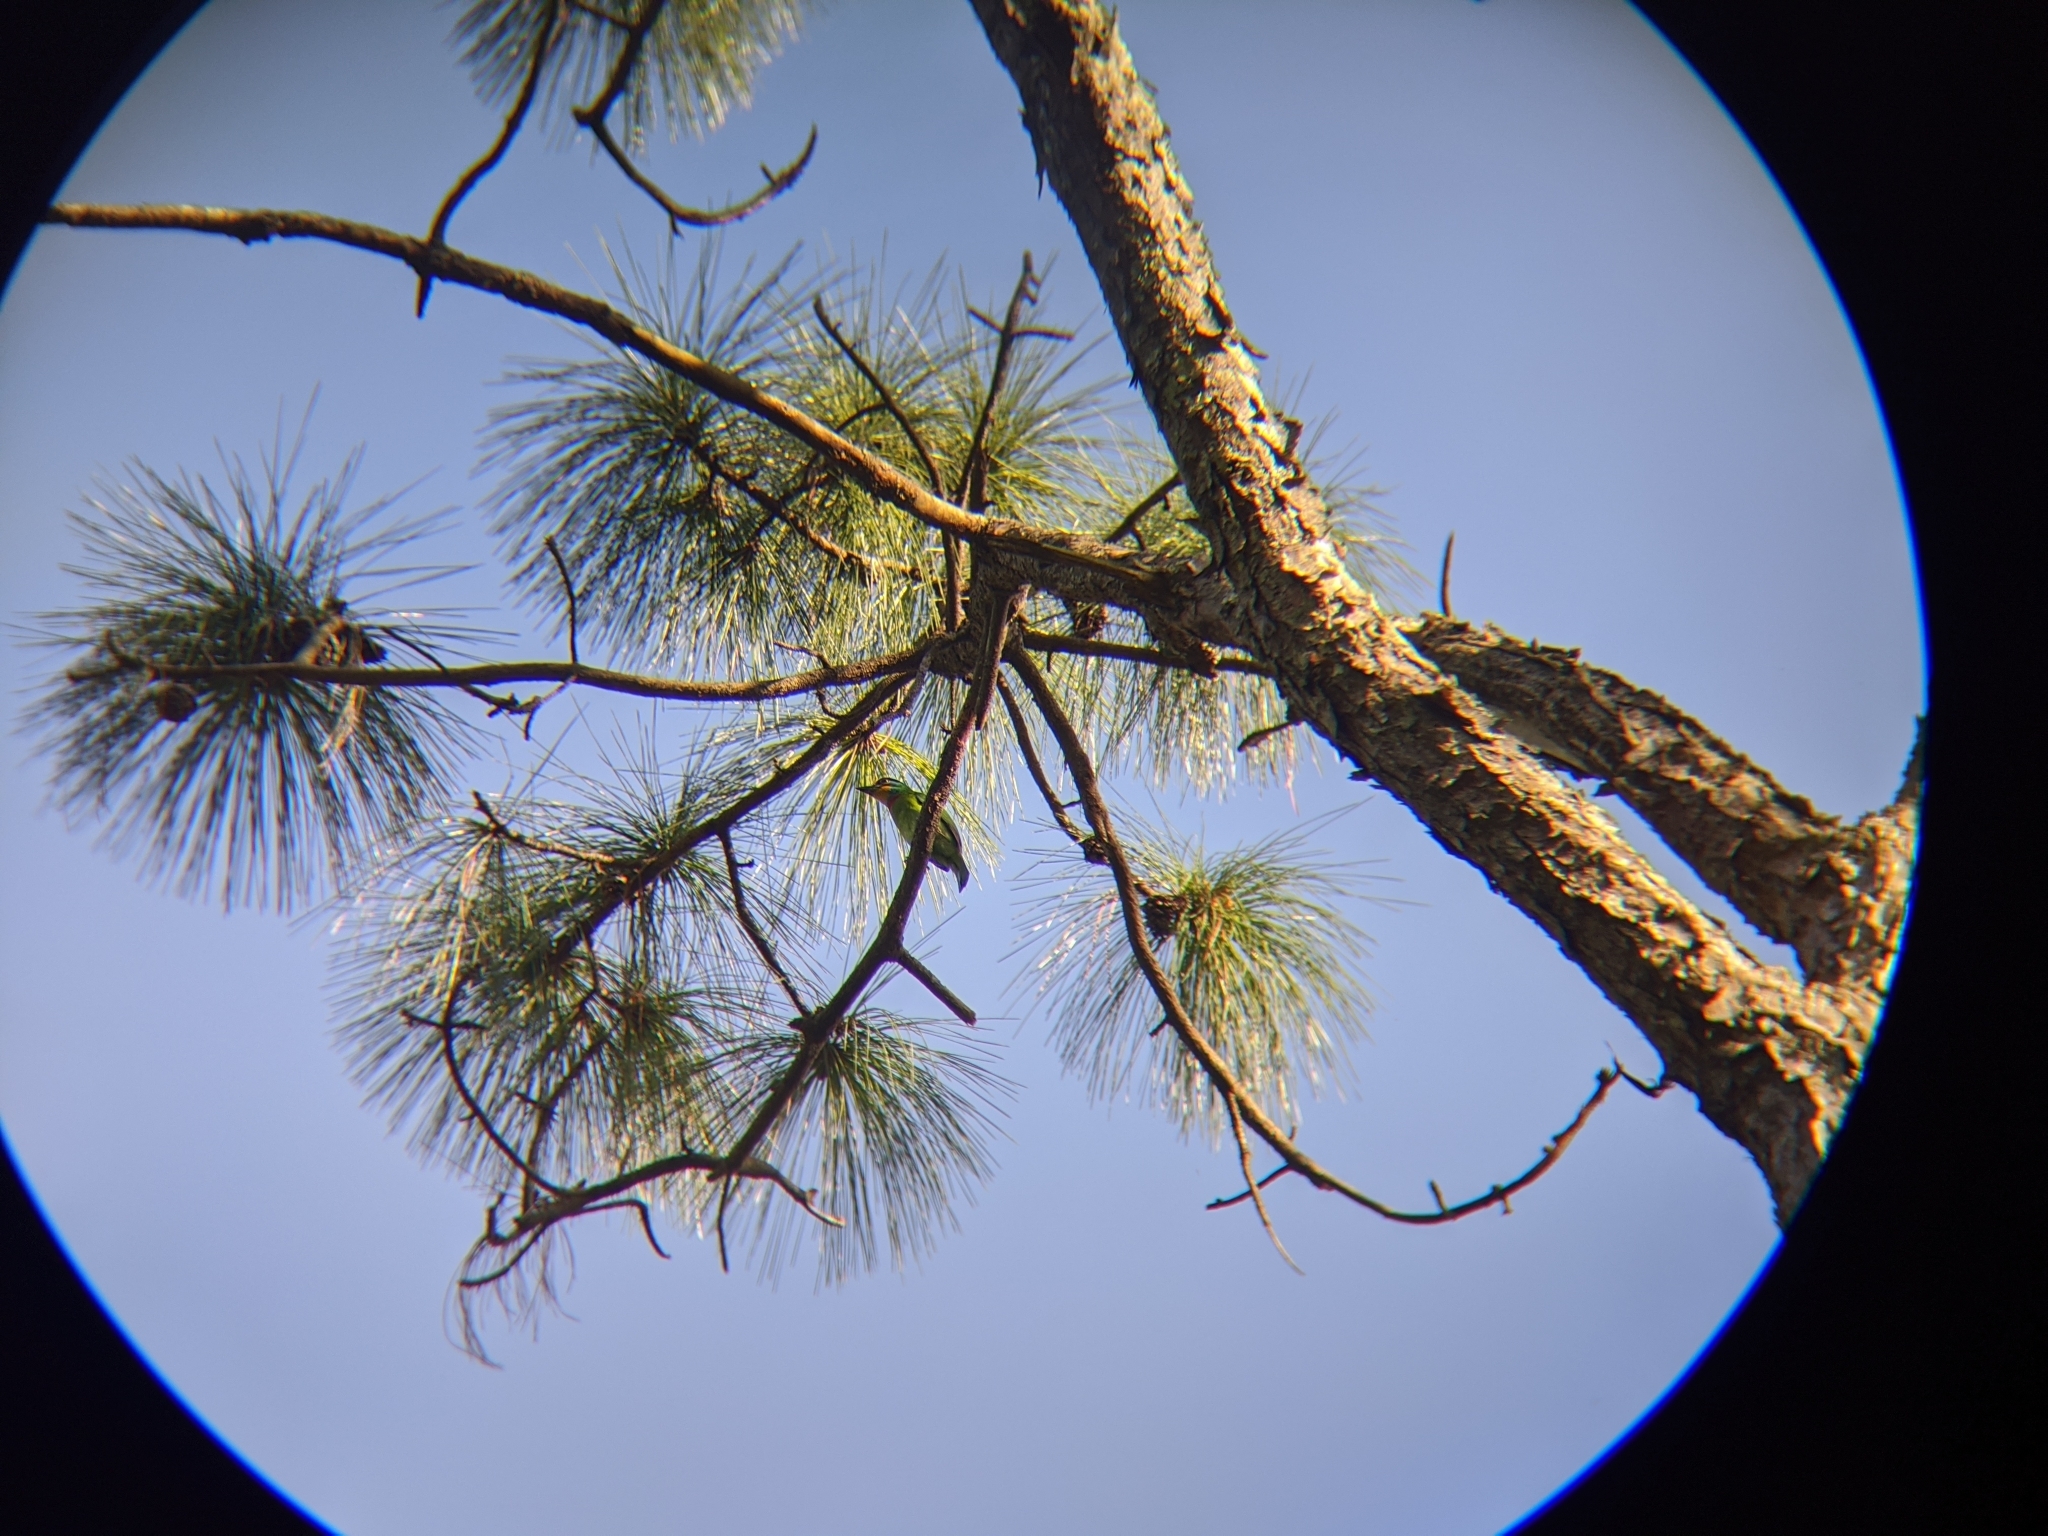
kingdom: Animalia
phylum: Chordata
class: Aves
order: Piciformes
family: Megalaimidae
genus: Psilopogon
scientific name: Psilopogon nuchalis
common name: Taiwan barbet
